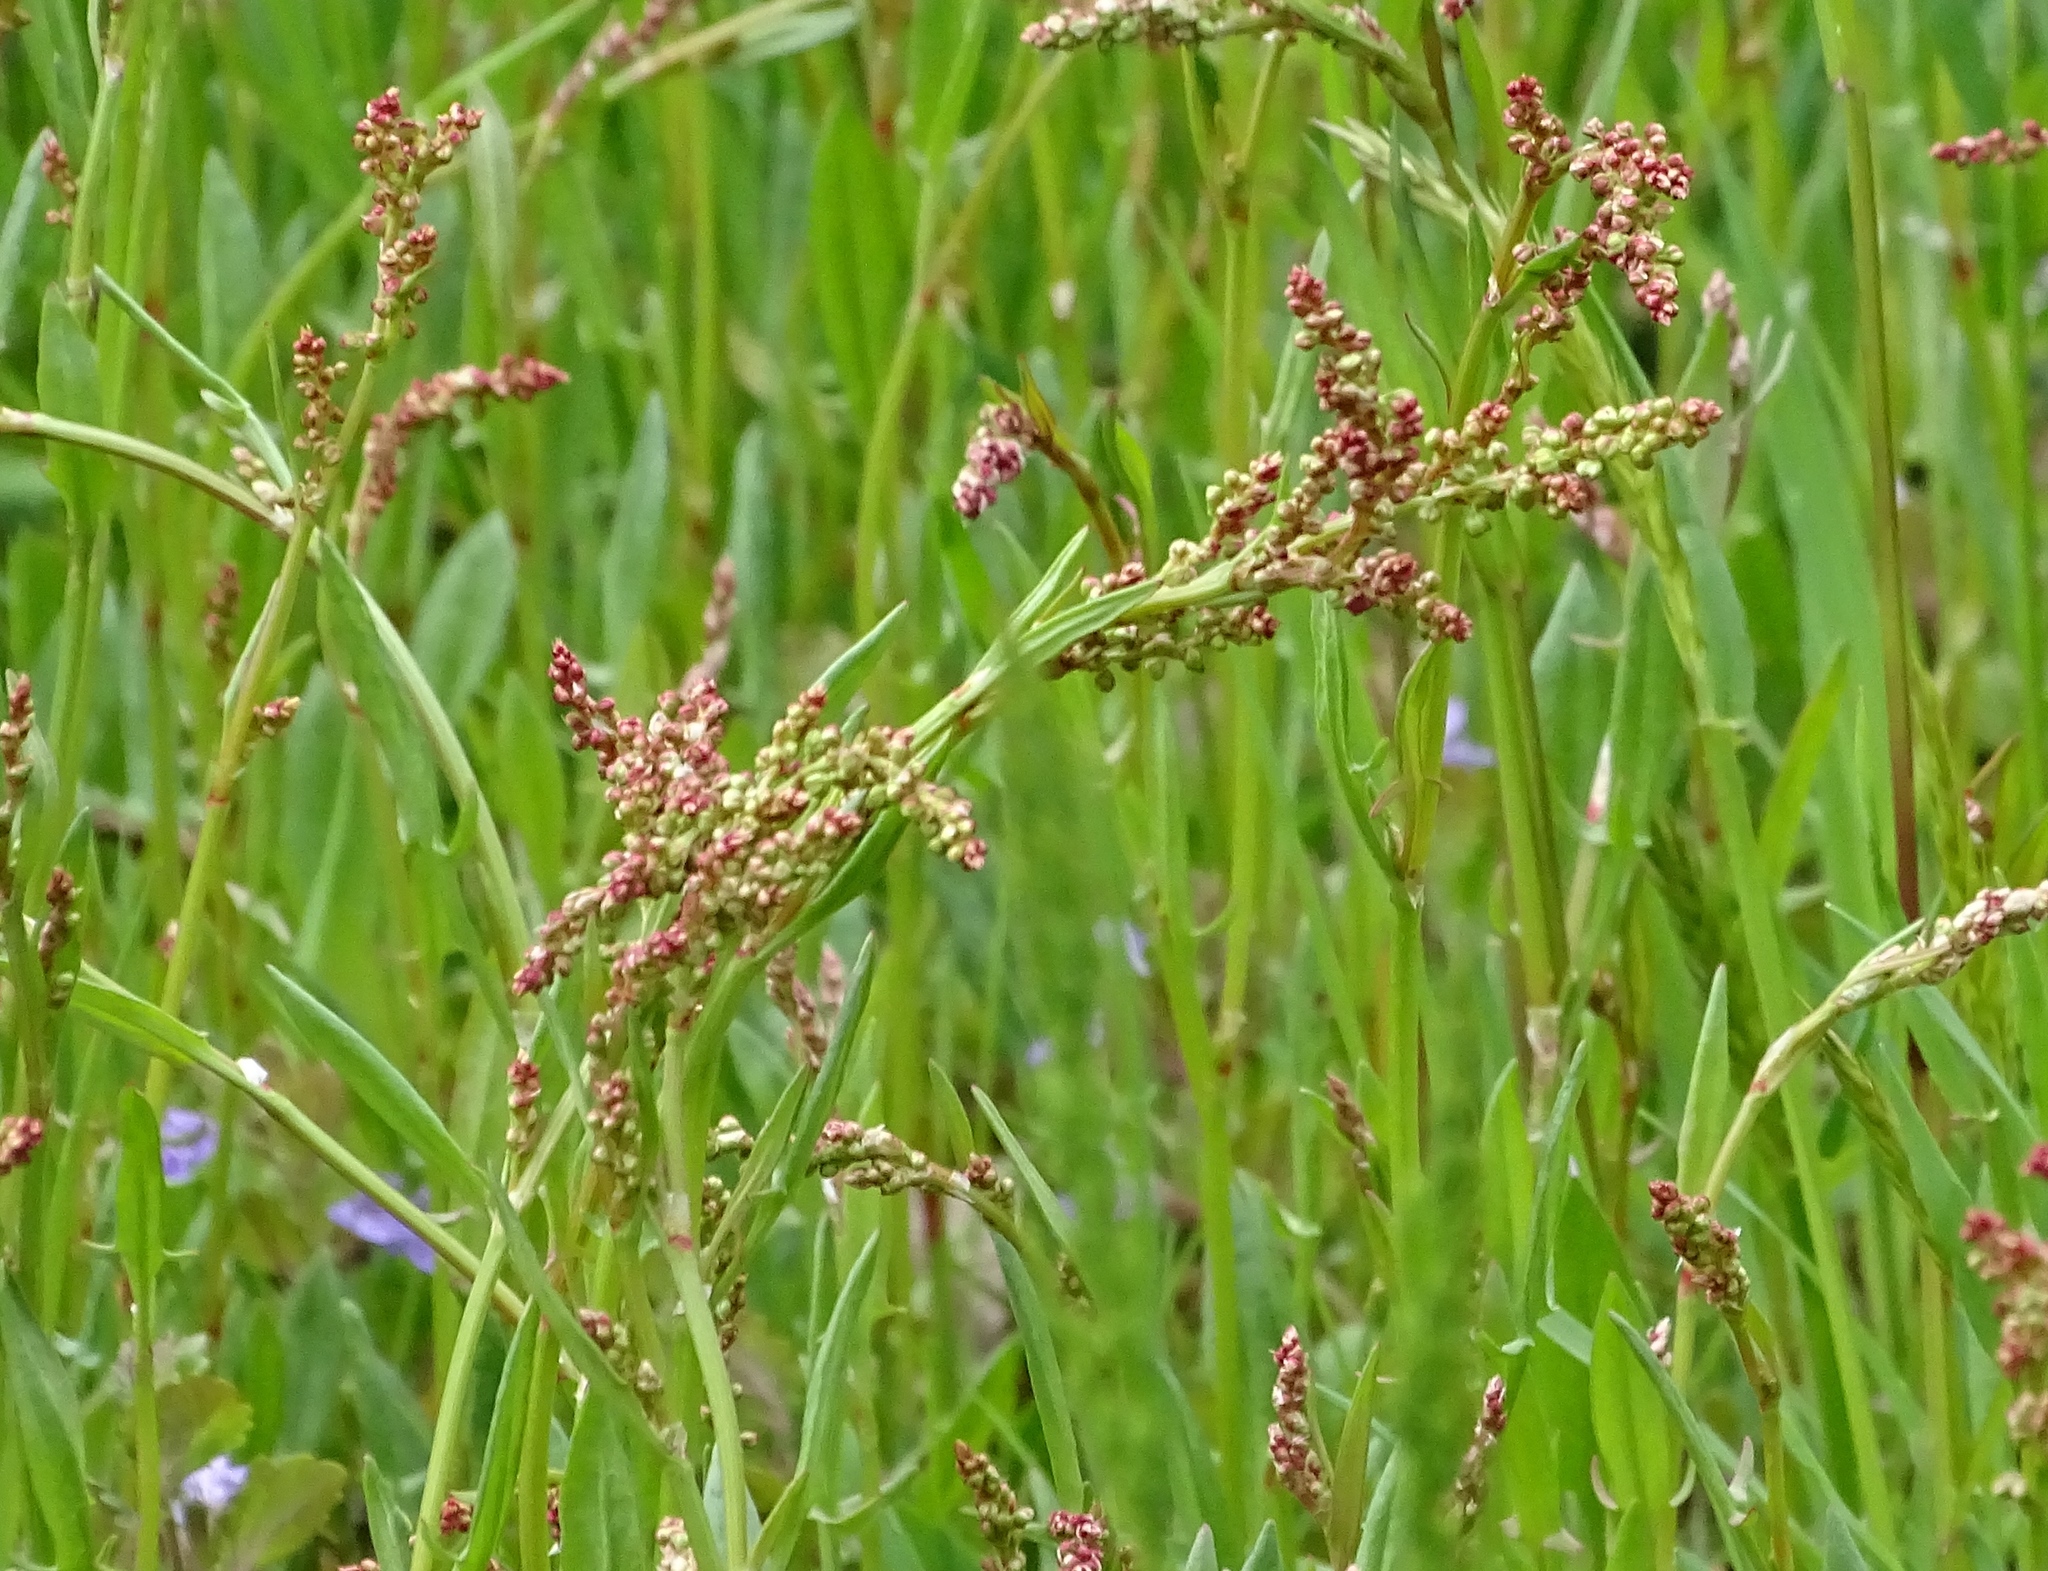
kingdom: Plantae
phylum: Tracheophyta
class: Magnoliopsida
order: Caryophyllales
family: Polygonaceae
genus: Rumex
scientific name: Rumex acetosella
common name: Common sheep sorrel
